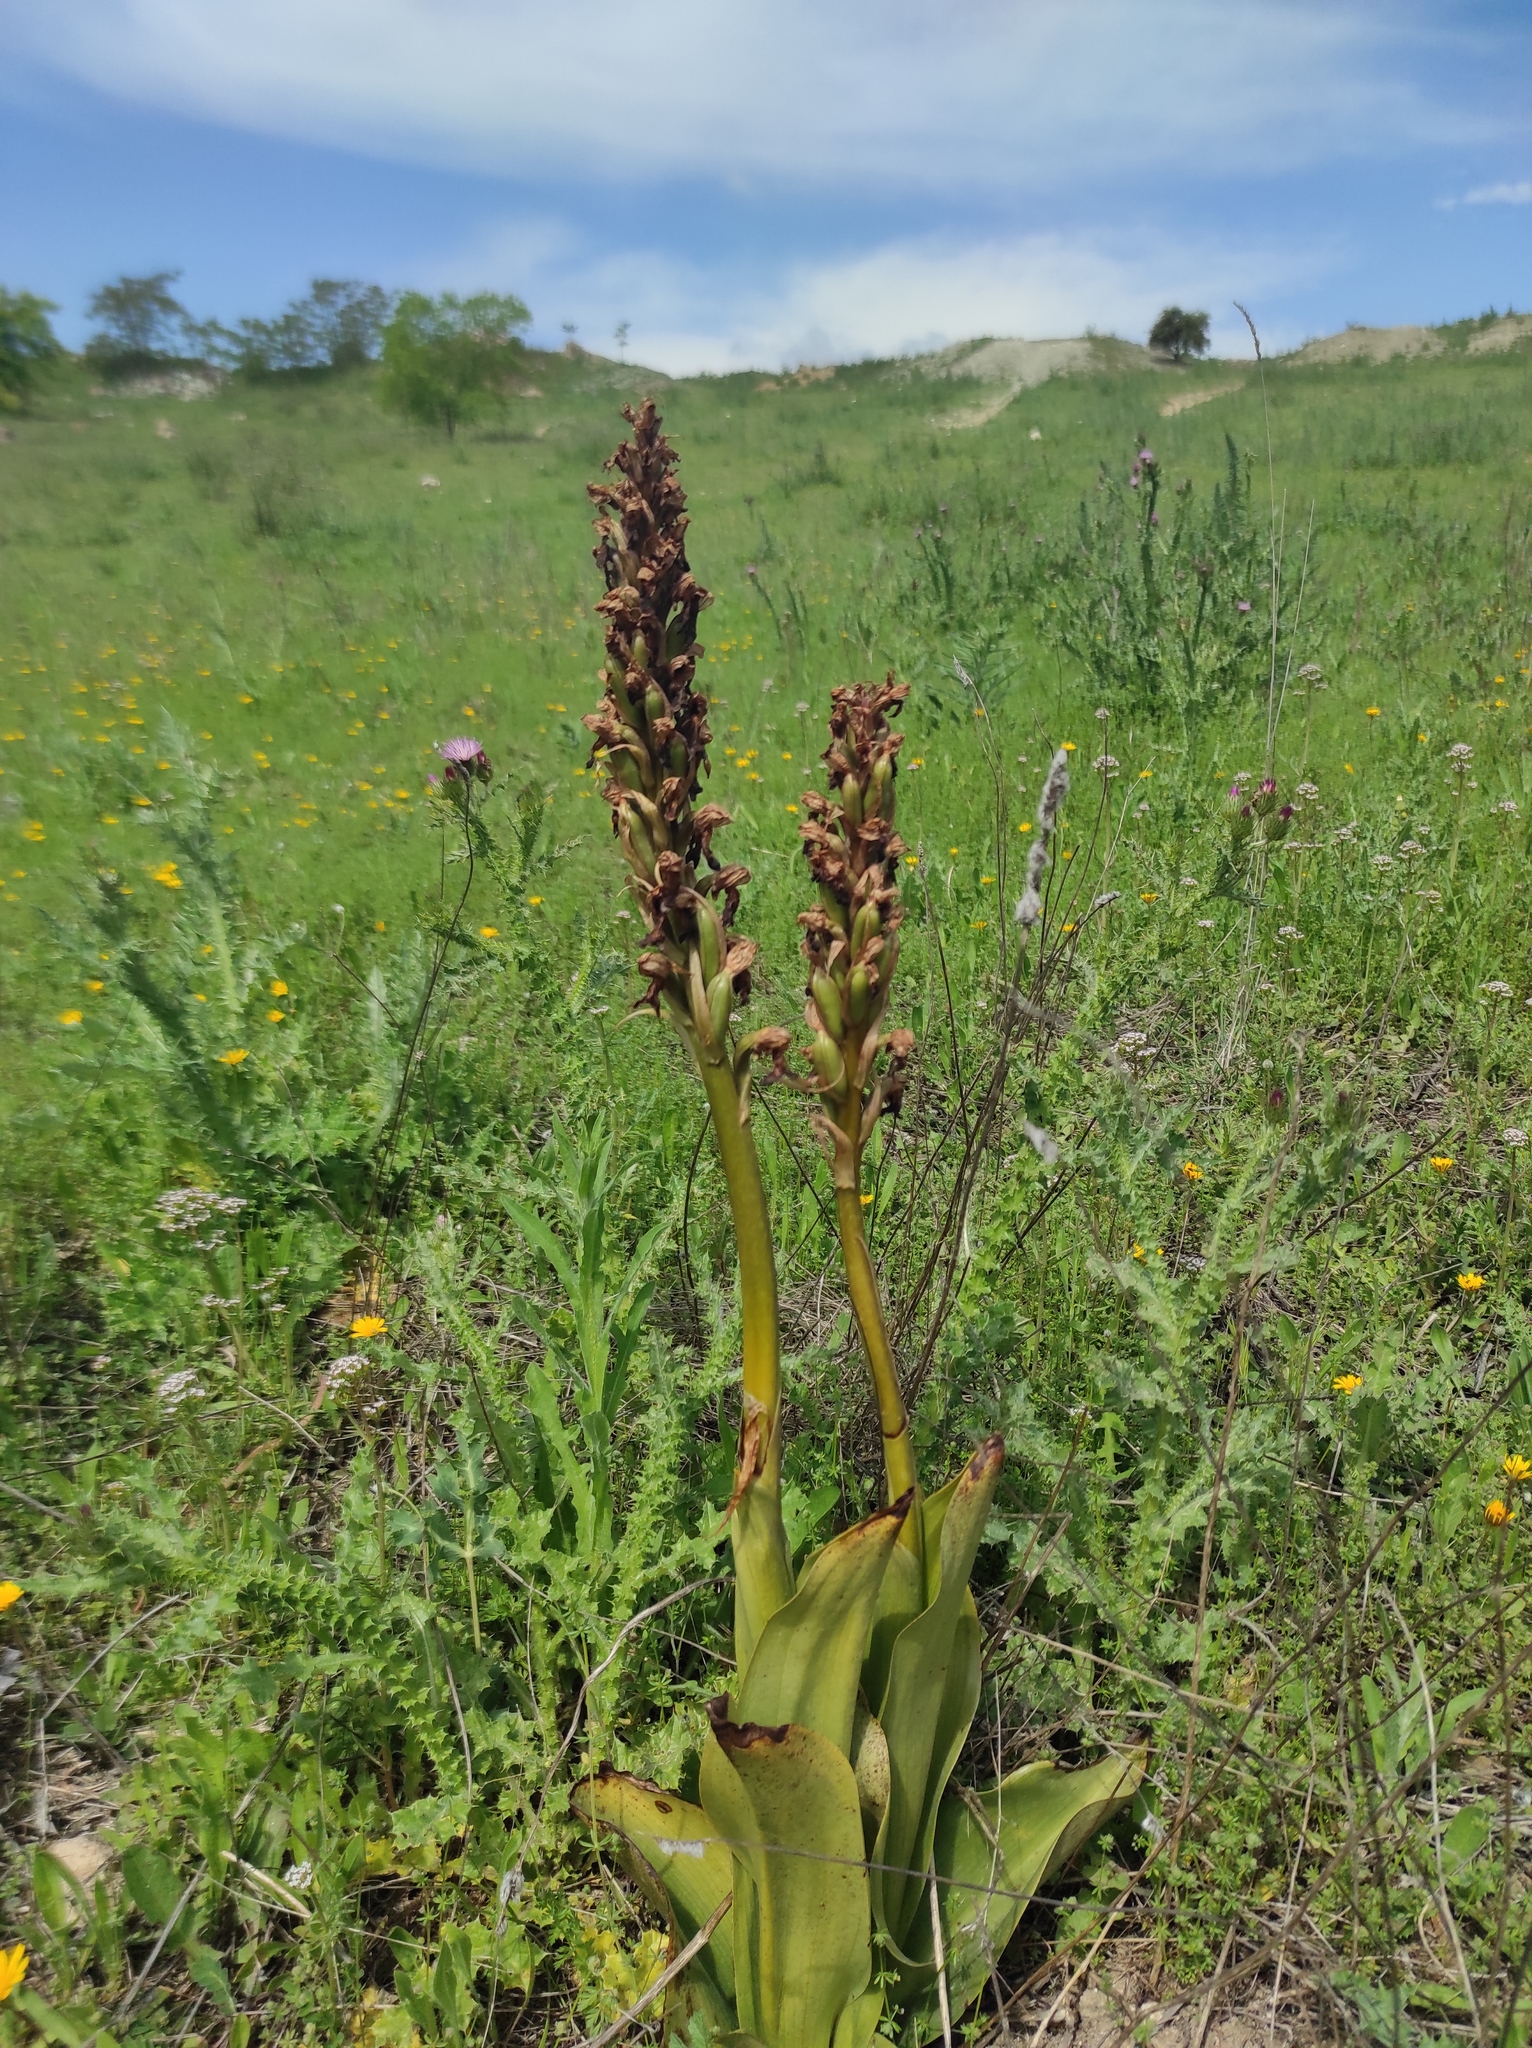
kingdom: Plantae
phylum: Tracheophyta
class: Liliopsida
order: Asparagales
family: Orchidaceae
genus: Himantoglossum
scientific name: Himantoglossum robertianum
